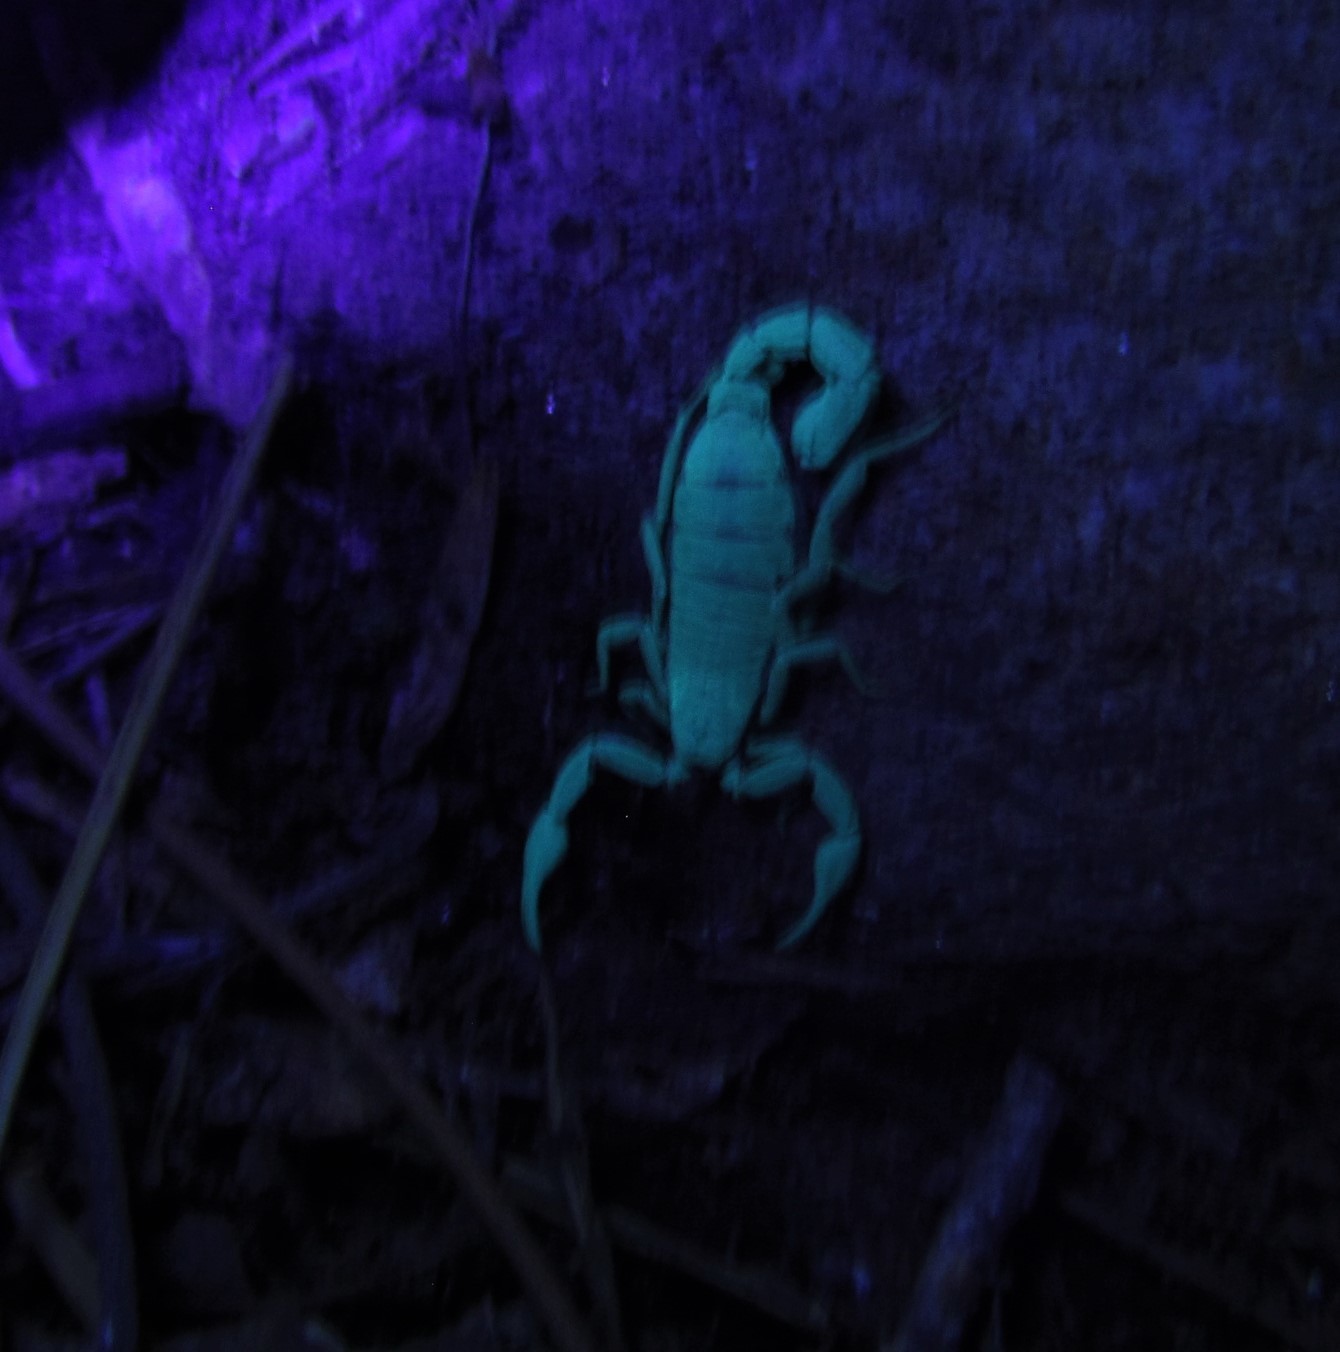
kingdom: Animalia
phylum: Arthropoda
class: Arachnida
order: Scorpiones
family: Vaejovidae
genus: Vaejovis
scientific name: Vaejovis carolinianus
